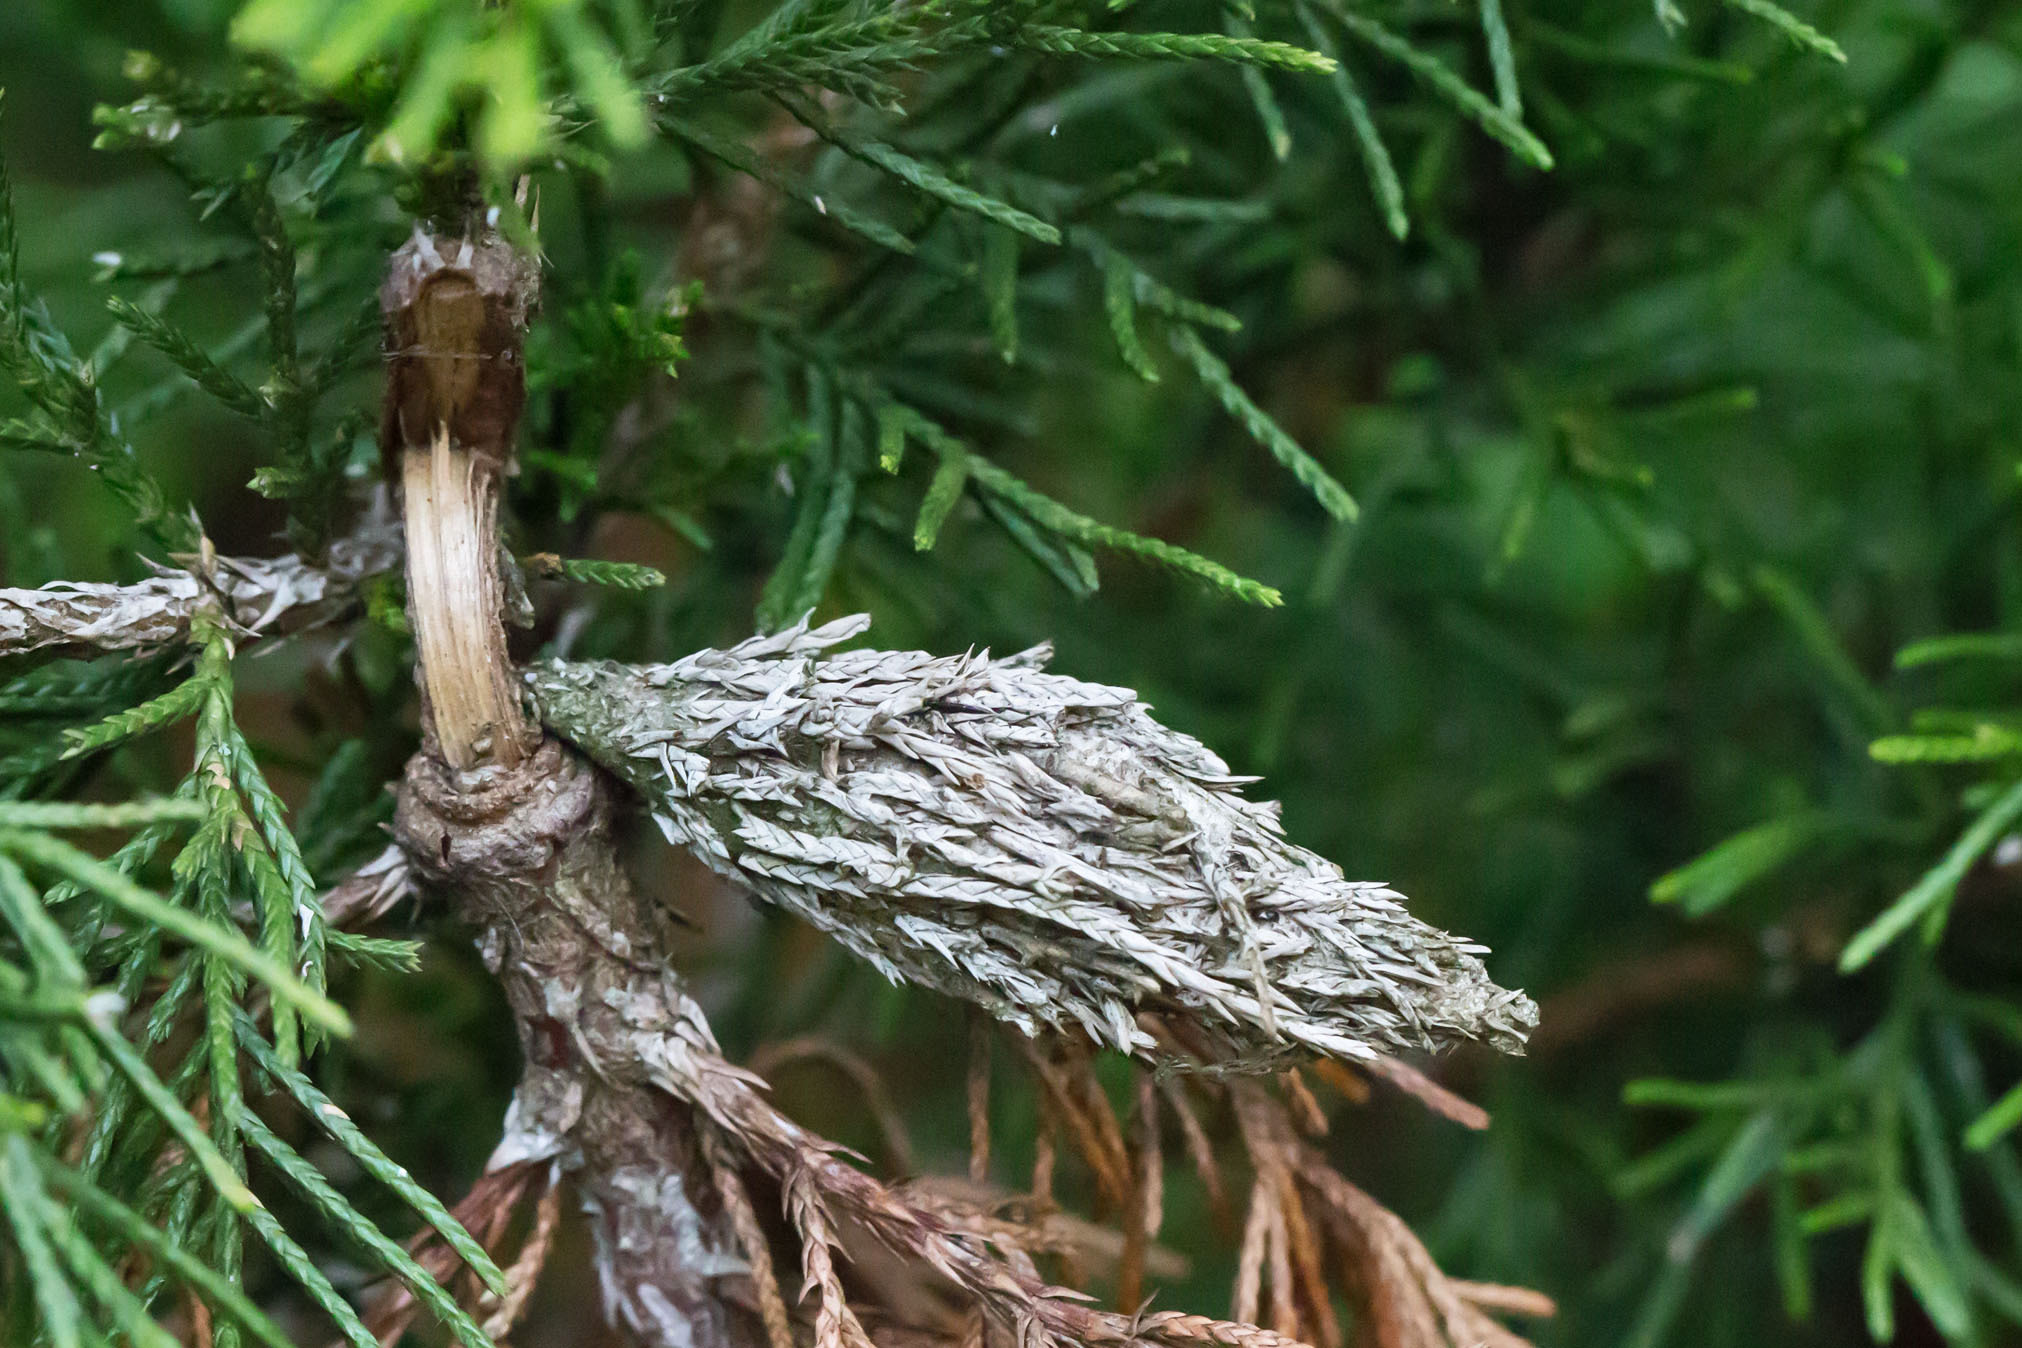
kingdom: Animalia
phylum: Arthropoda
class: Insecta
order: Lepidoptera
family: Psychidae
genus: Thyridopteryx
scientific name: Thyridopteryx ephemeraeformis
